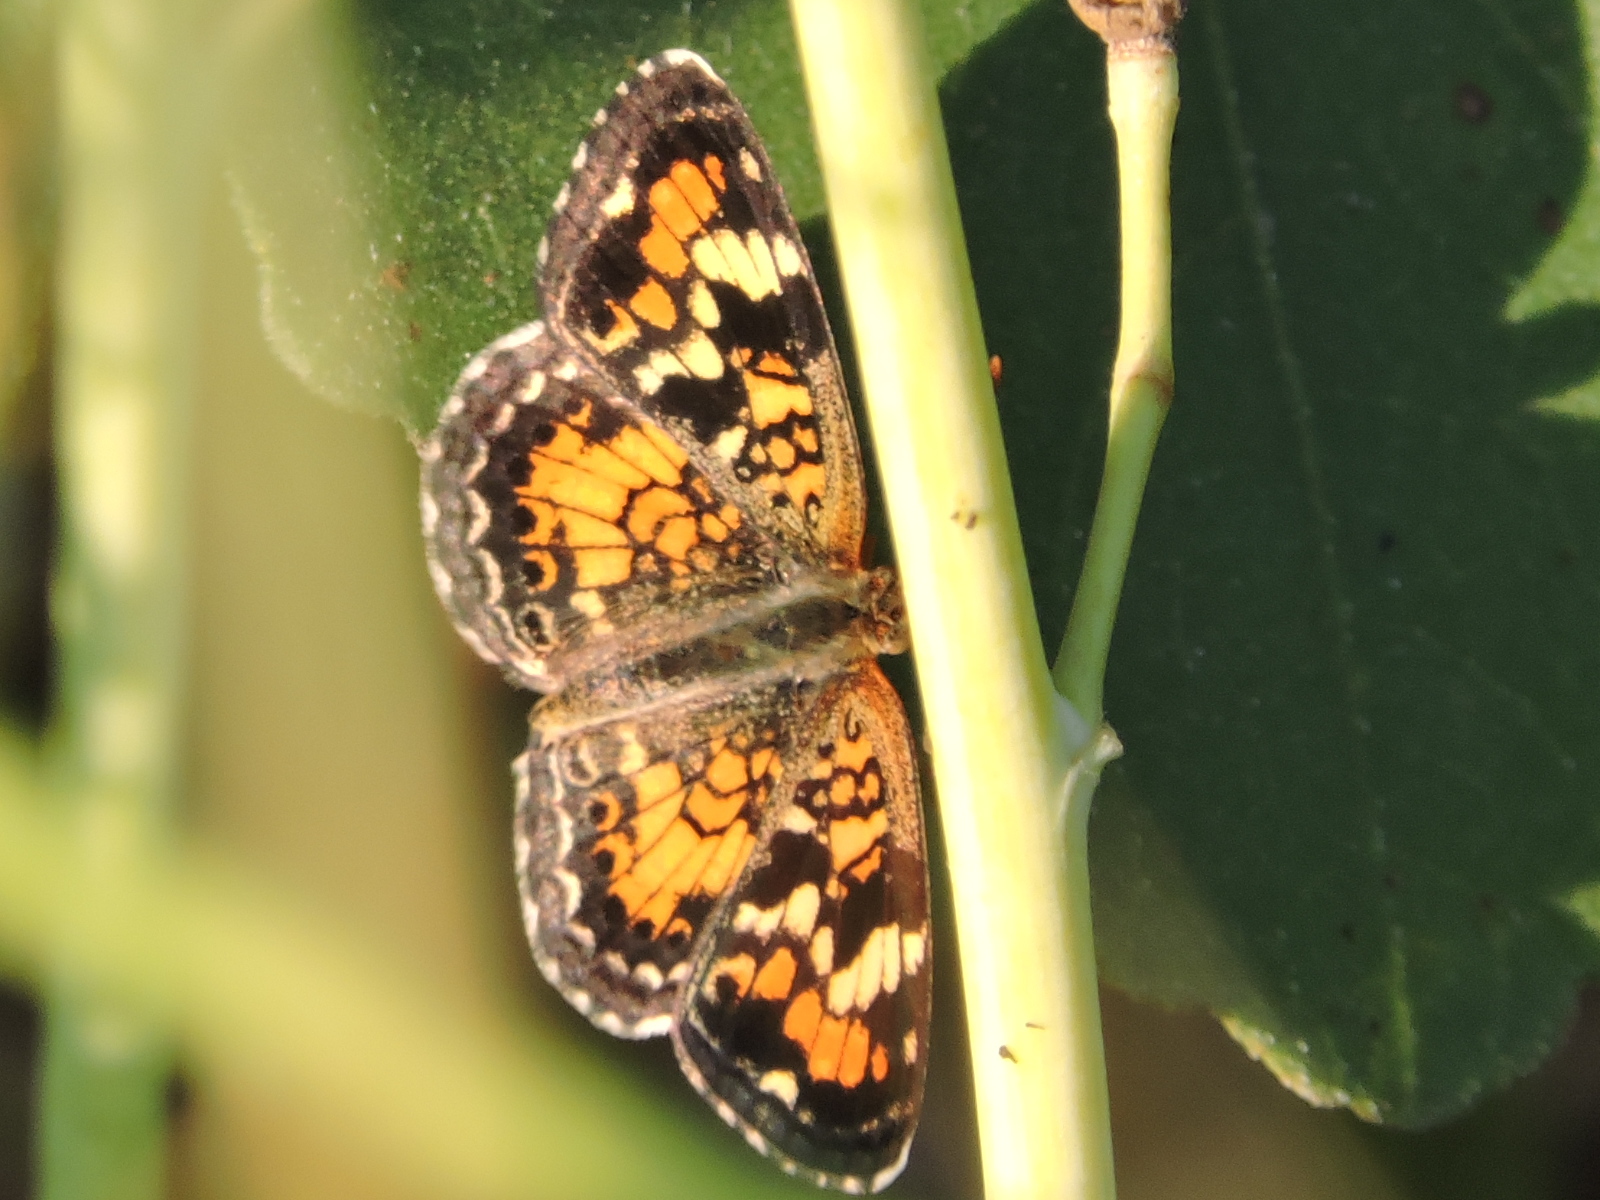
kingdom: Animalia
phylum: Arthropoda
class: Insecta
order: Lepidoptera
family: Nymphalidae
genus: Phyciodes
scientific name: Phyciodes phaon
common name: Phaon crescent
